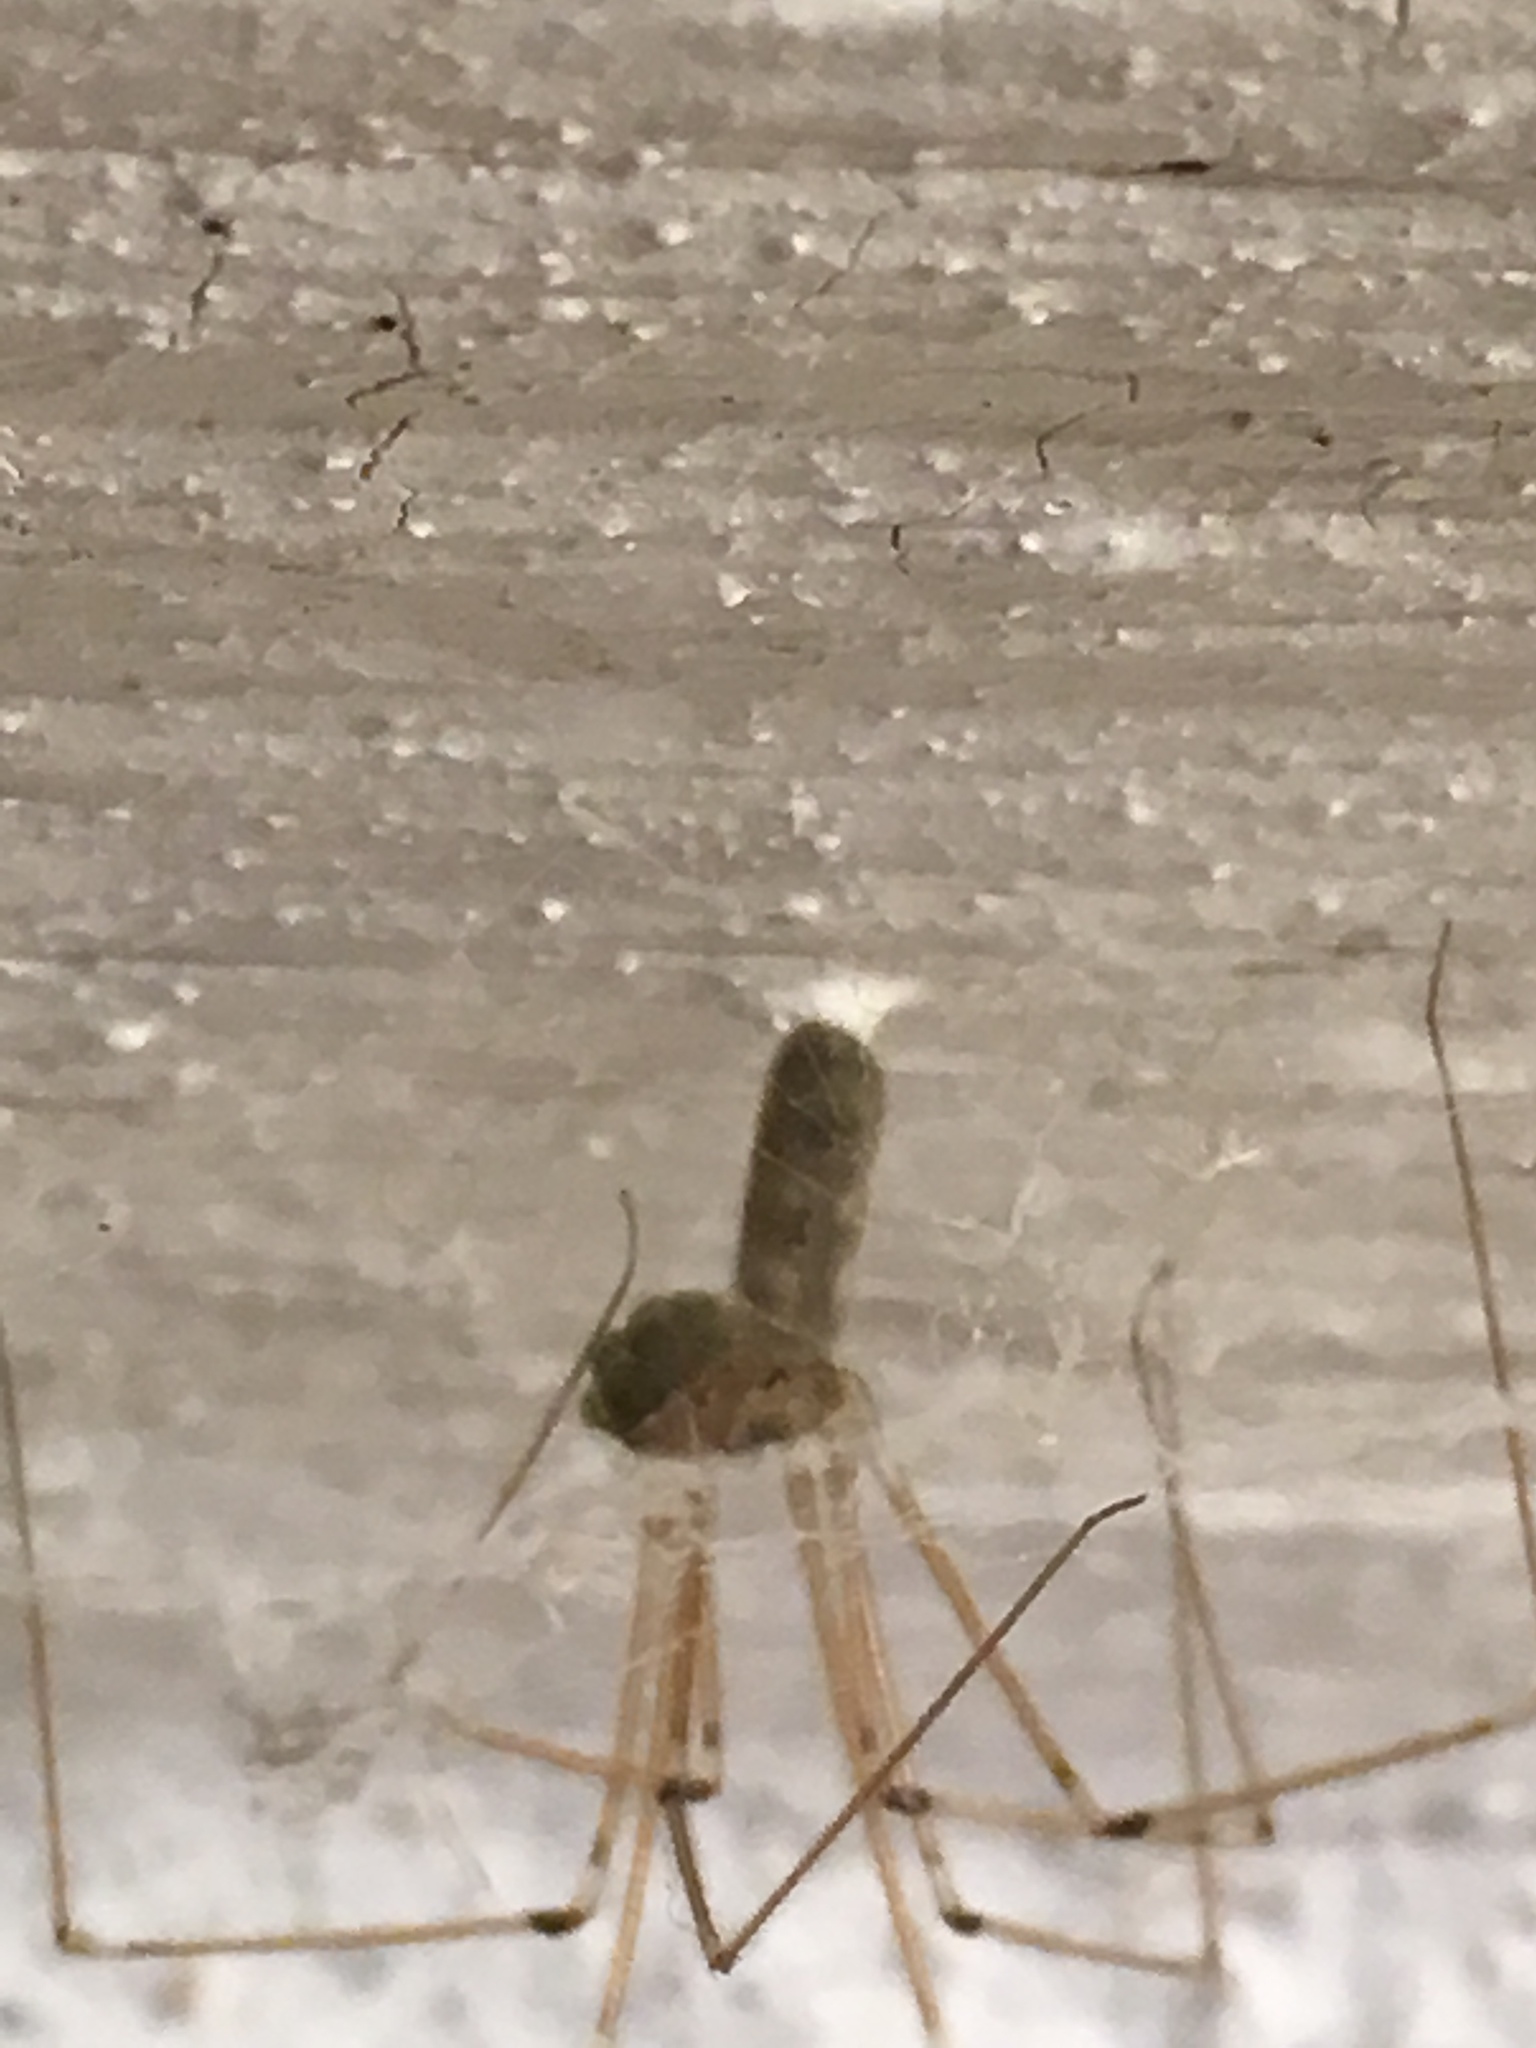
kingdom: Animalia
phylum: Arthropoda
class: Arachnida
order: Araneae
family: Pholcidae
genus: Pholcus
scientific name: Pholcus phalangioides
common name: Longbodied cellar spider
